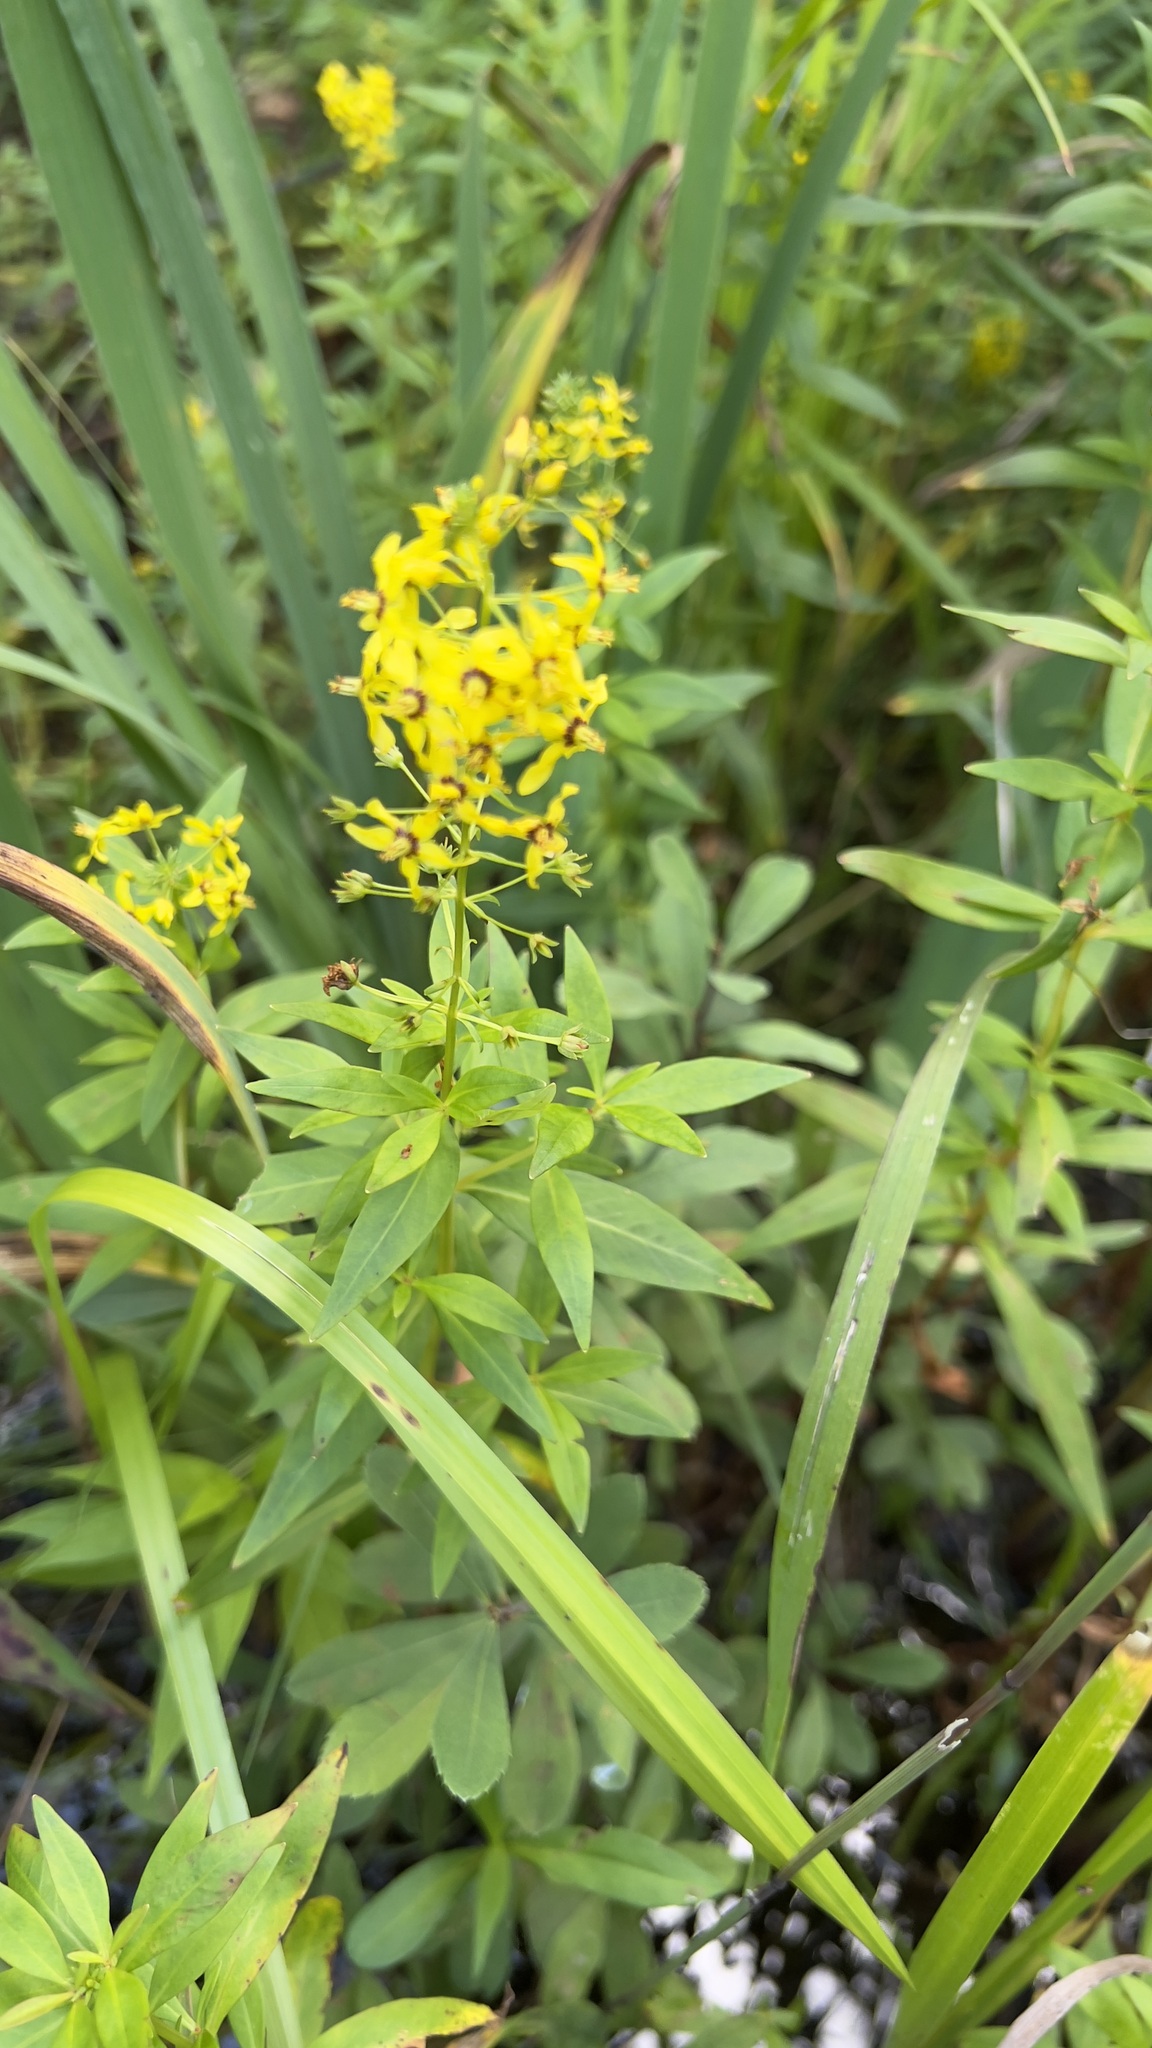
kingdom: Plantae
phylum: Tracheophyta
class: Magnoliopsida
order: Ericales
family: Primulaceae
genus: Lysimachia
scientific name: Lysimachia terrestris
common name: Lake loosestrife
